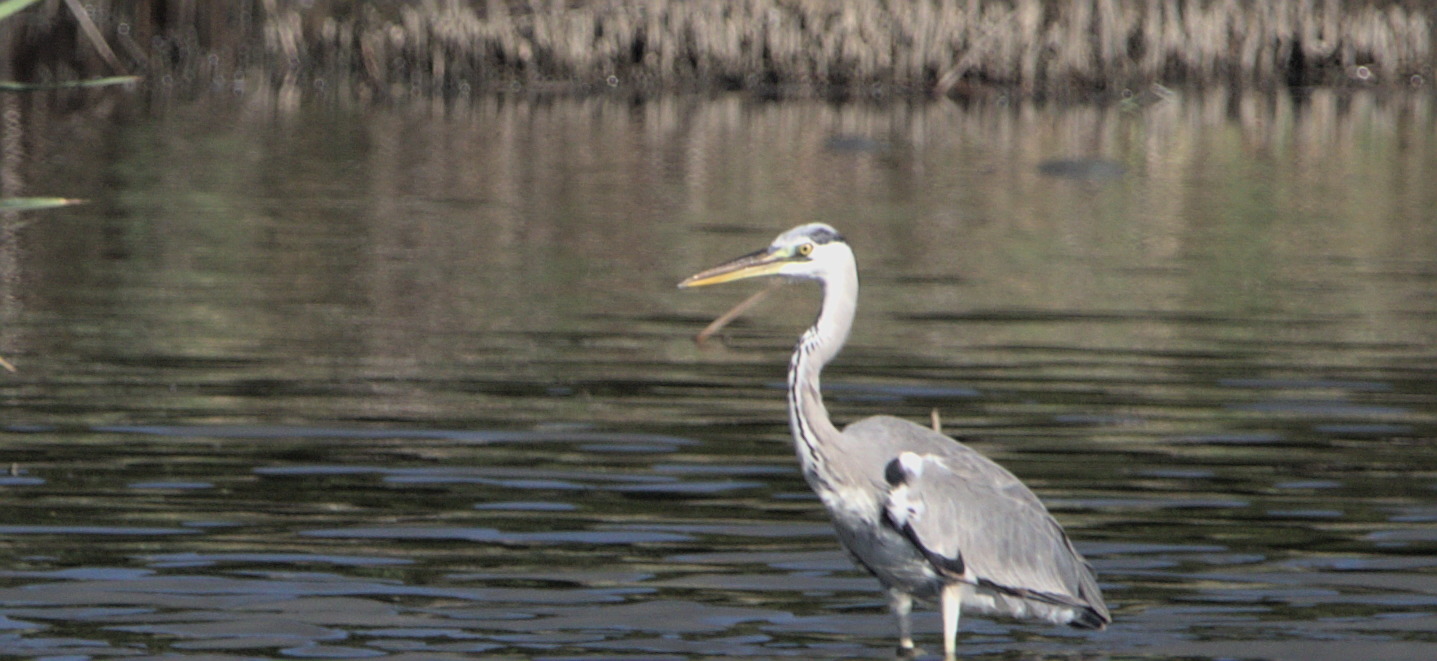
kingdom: Animalia
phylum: Chordata
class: Aves
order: Pelecaniformes
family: Ardeidae
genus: Ardea
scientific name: Ardea cinerea
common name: Grey heron
